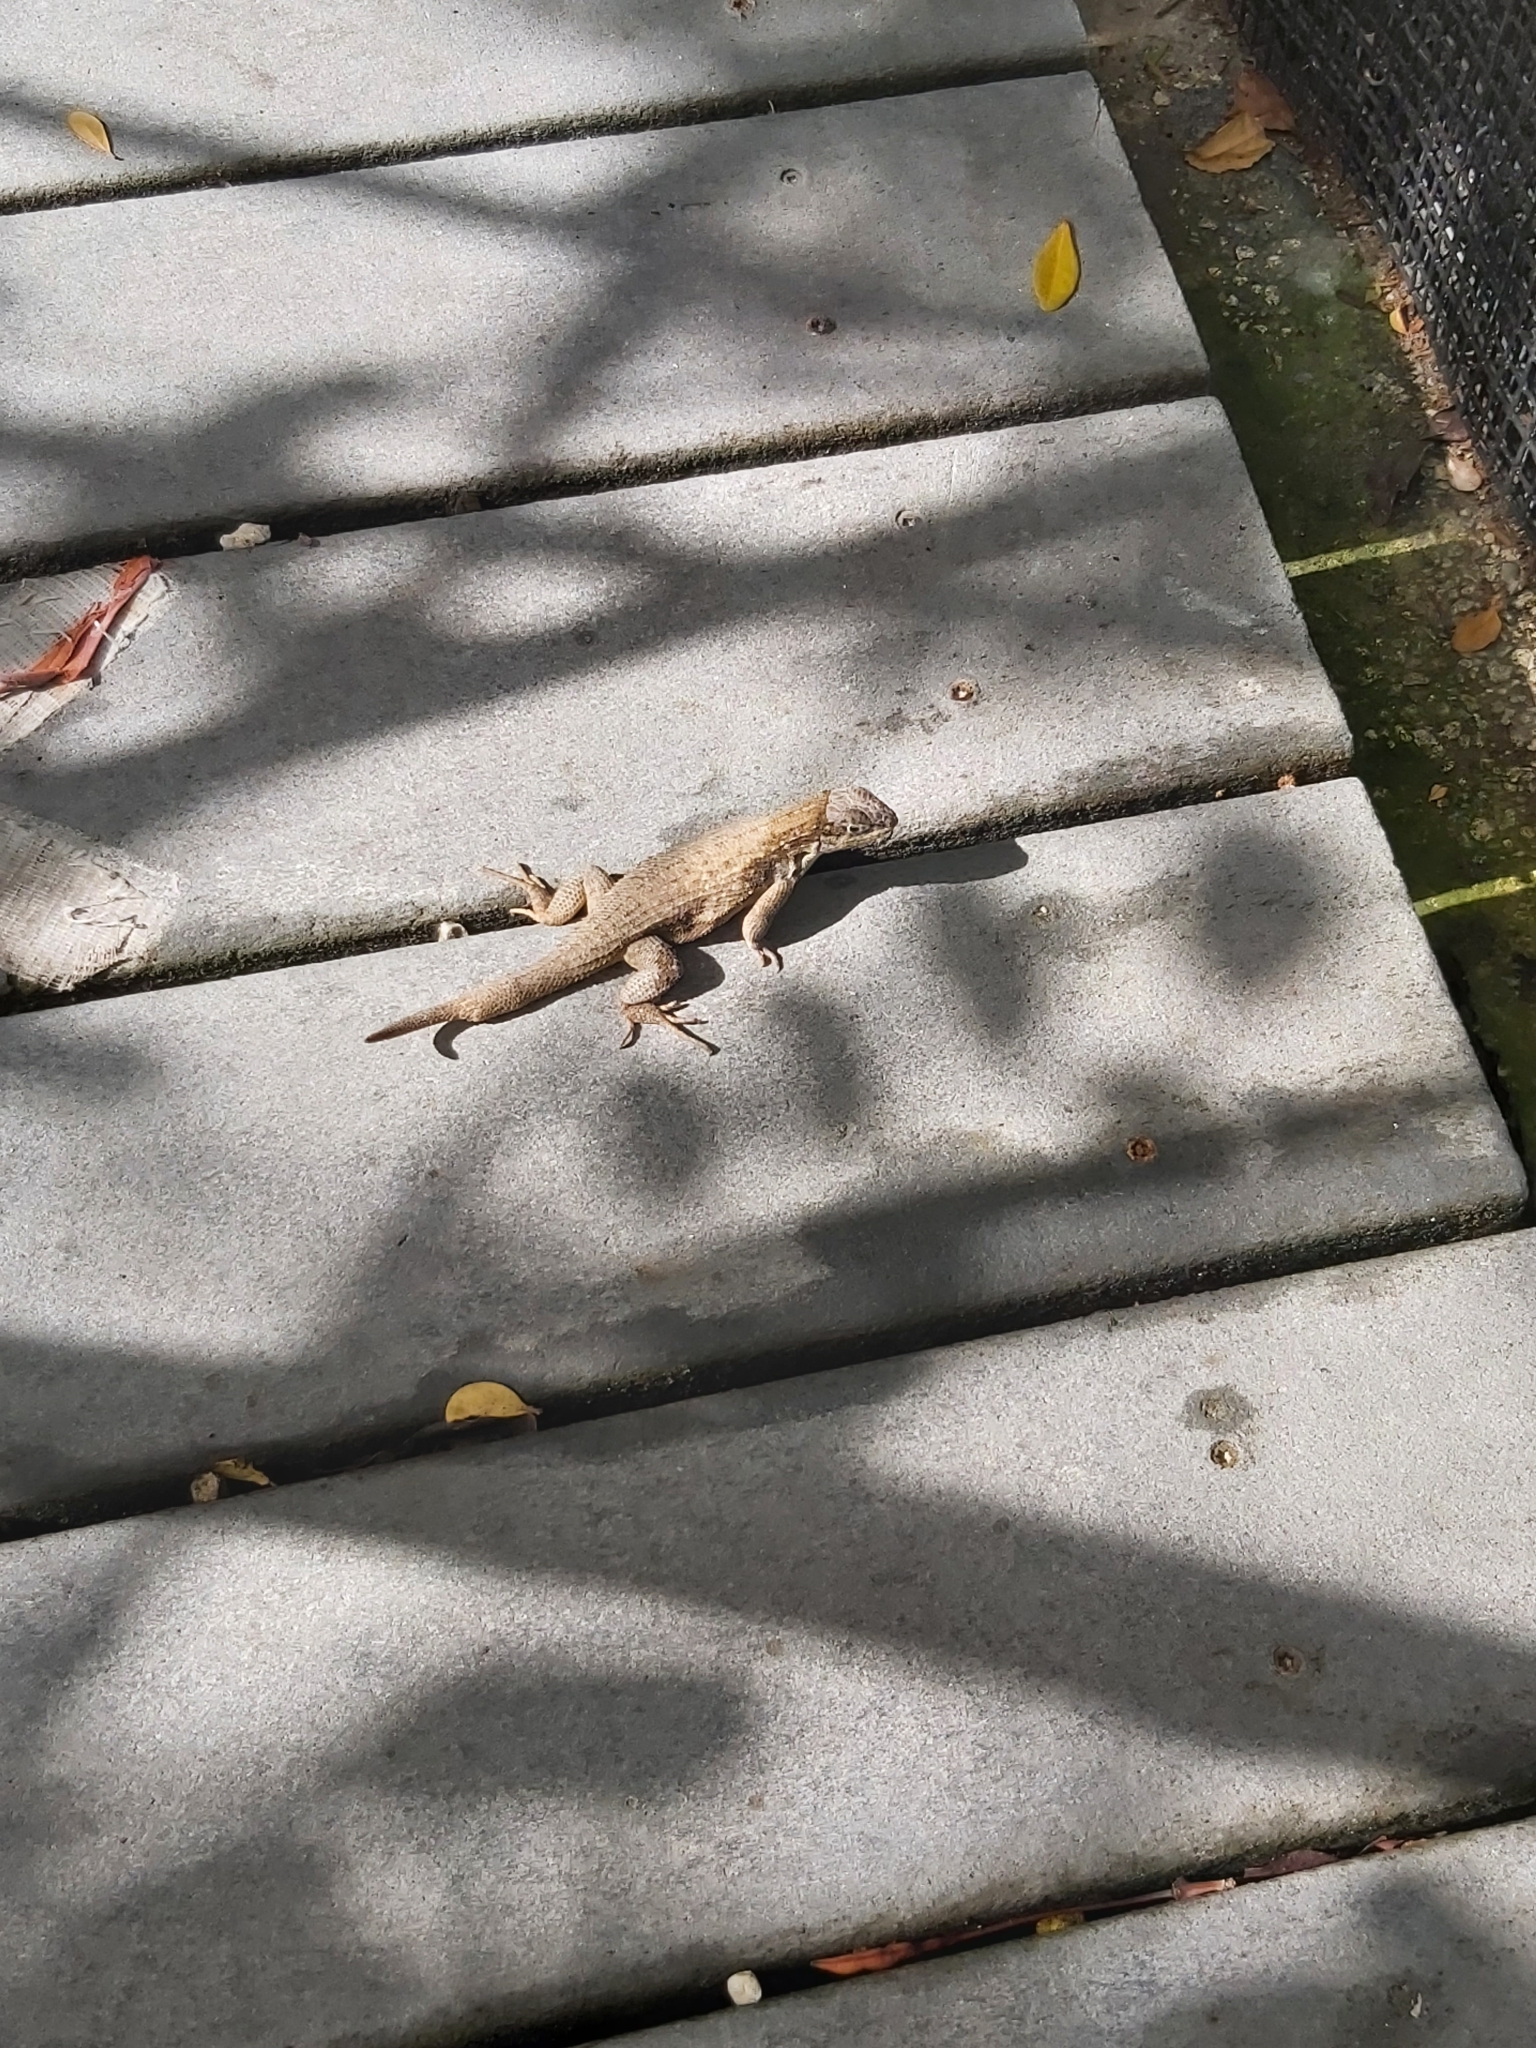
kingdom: Animalia
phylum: Chordata
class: Squamata
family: Leiocephalidae
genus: Leiocephalus
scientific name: Leiocephalus carinatus
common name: Northern curly-tailed lizard
